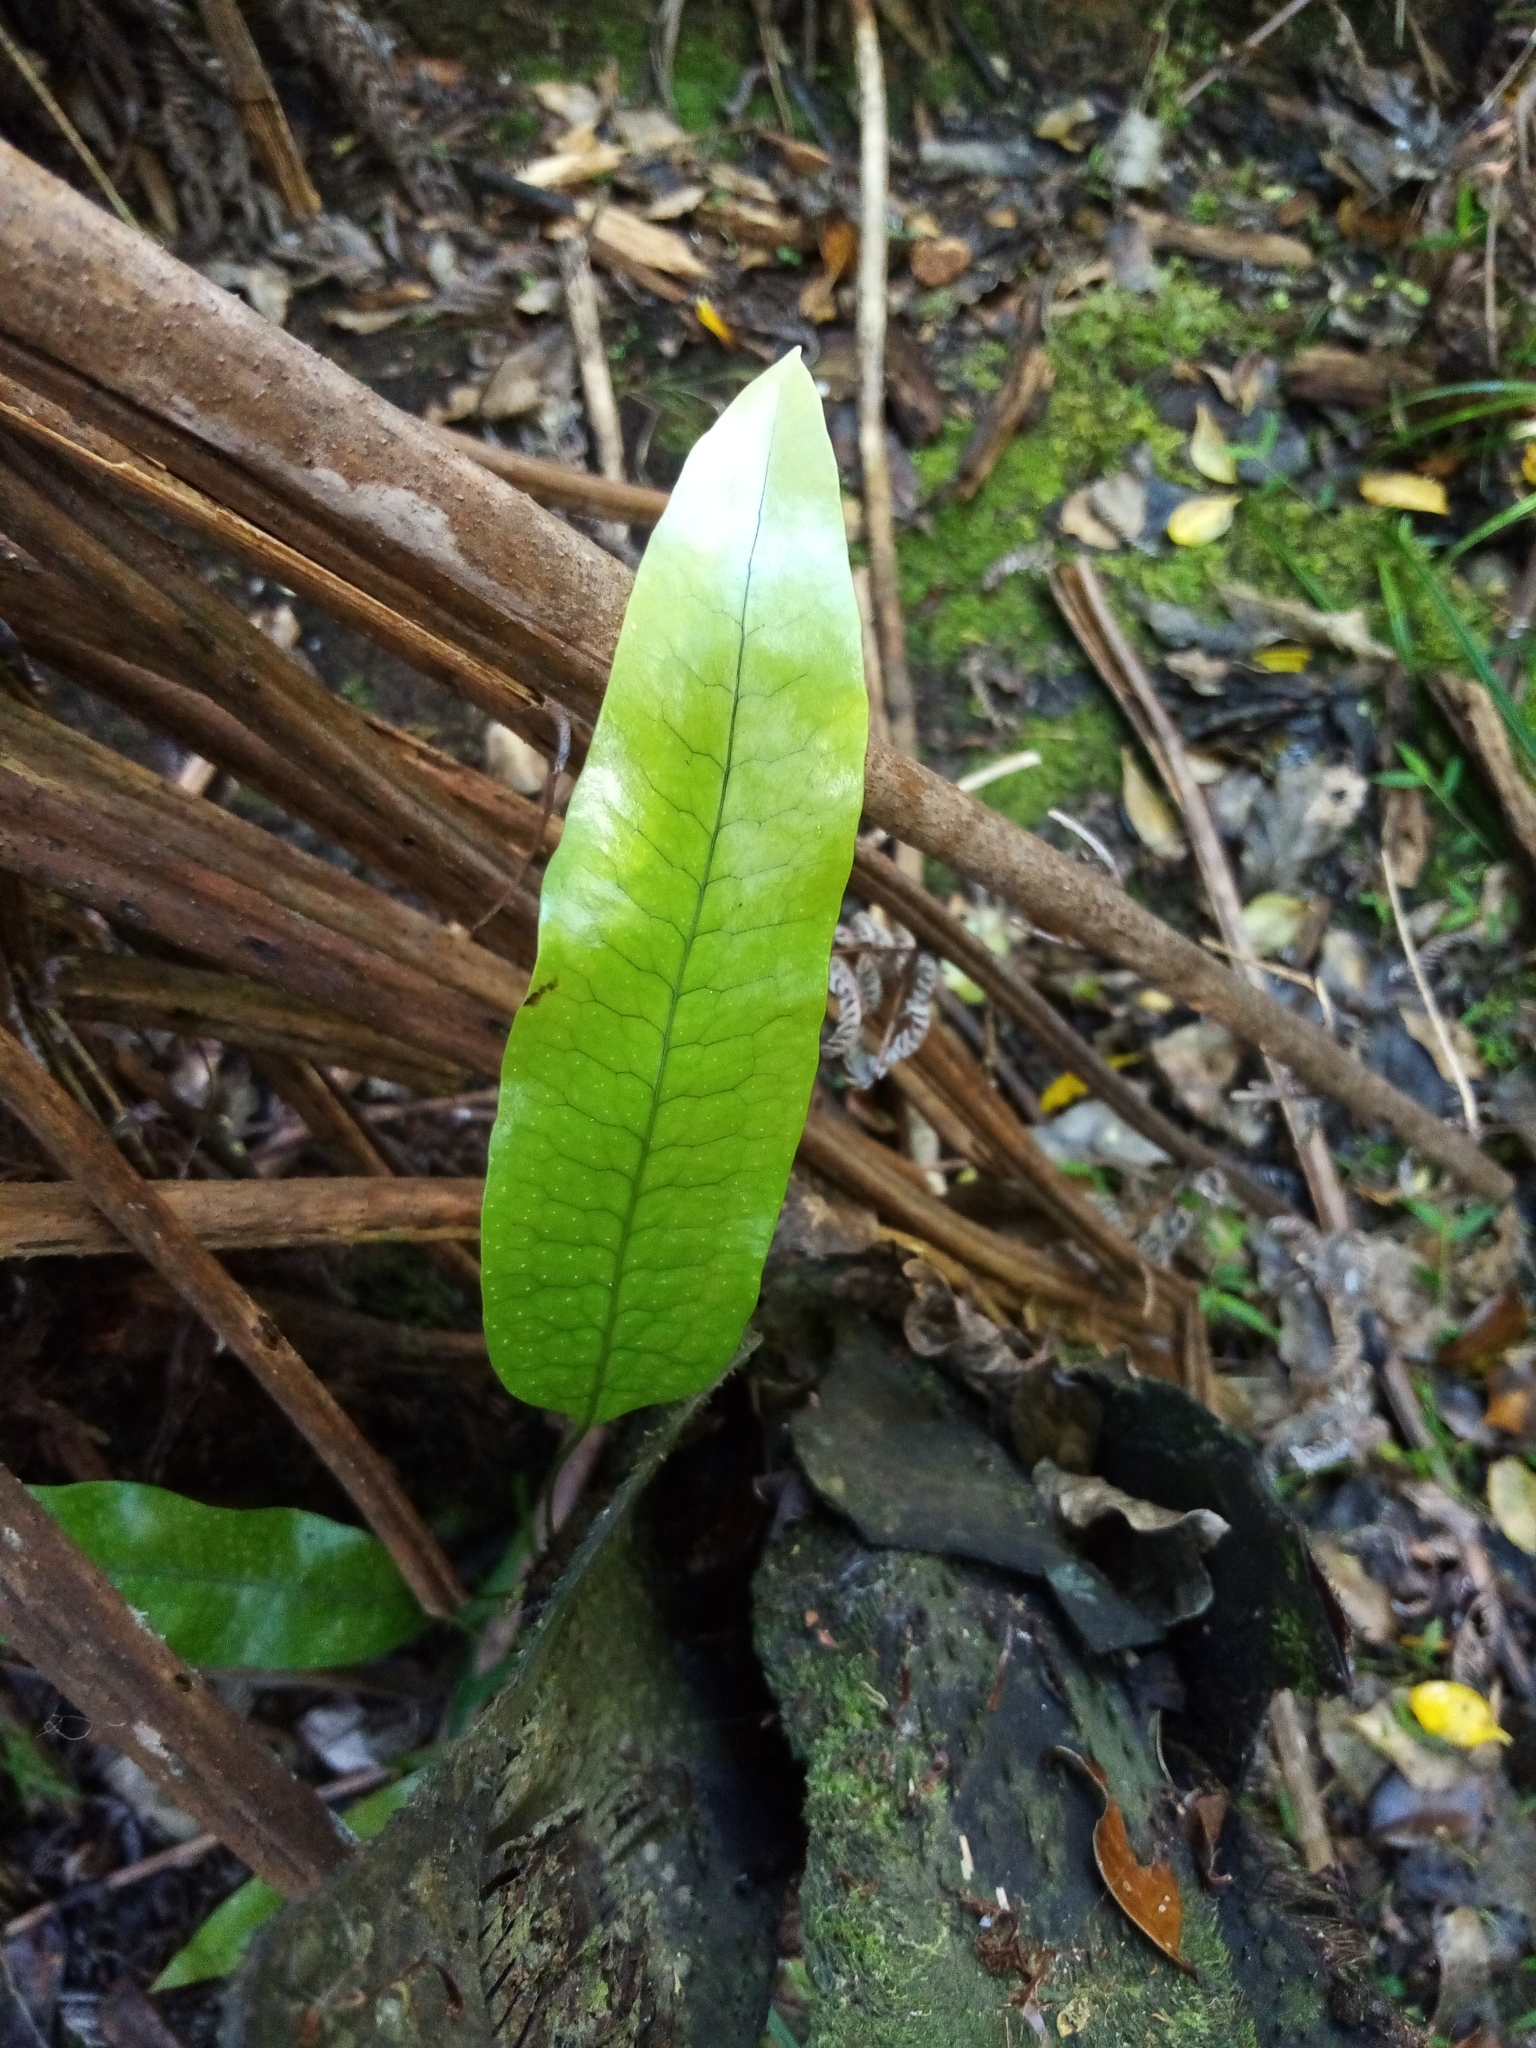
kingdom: Plantae
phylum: Tracheophyta
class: Polypodiopsida
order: Polypodiales
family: Polypodiaceae
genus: Lecanopteris
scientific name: Lecanopteris pustulata
